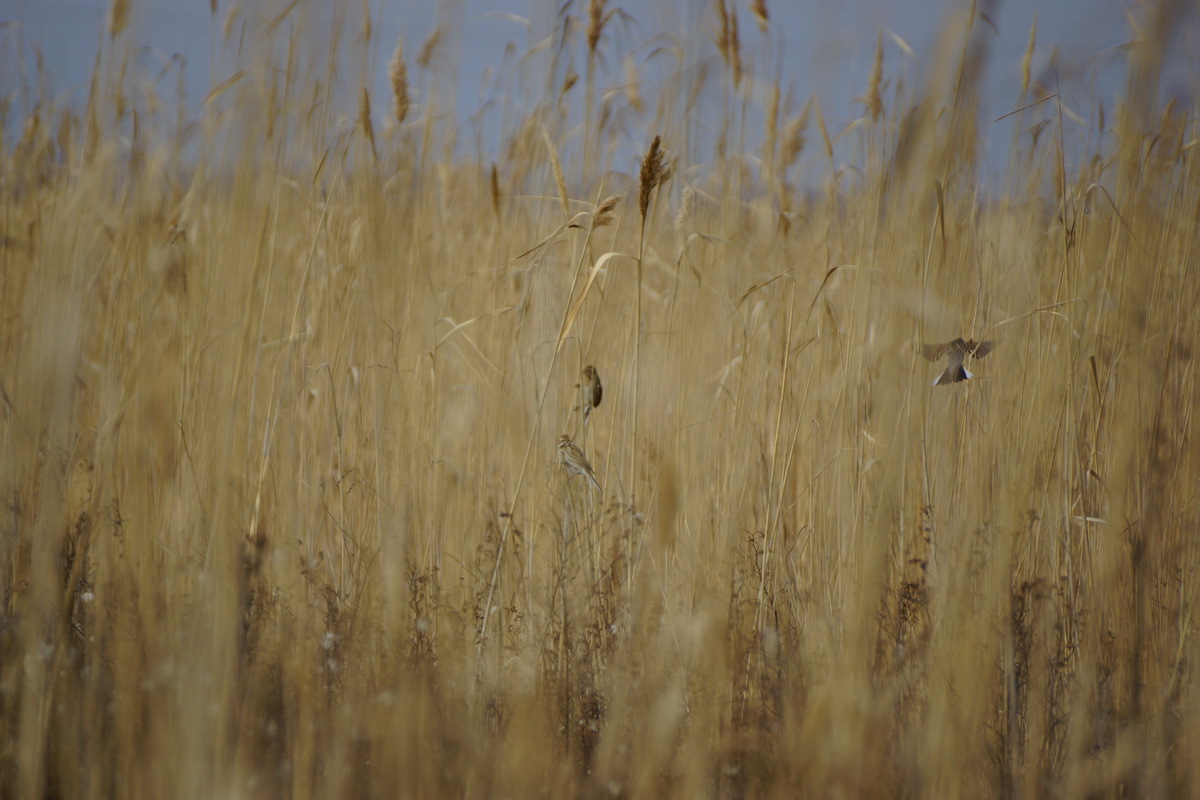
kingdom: Animalia
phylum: Chordata
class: Aves
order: Passeriformes
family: Emberizidae
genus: Emberiza
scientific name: Emberiza schoeniclus
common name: Reed bunting
